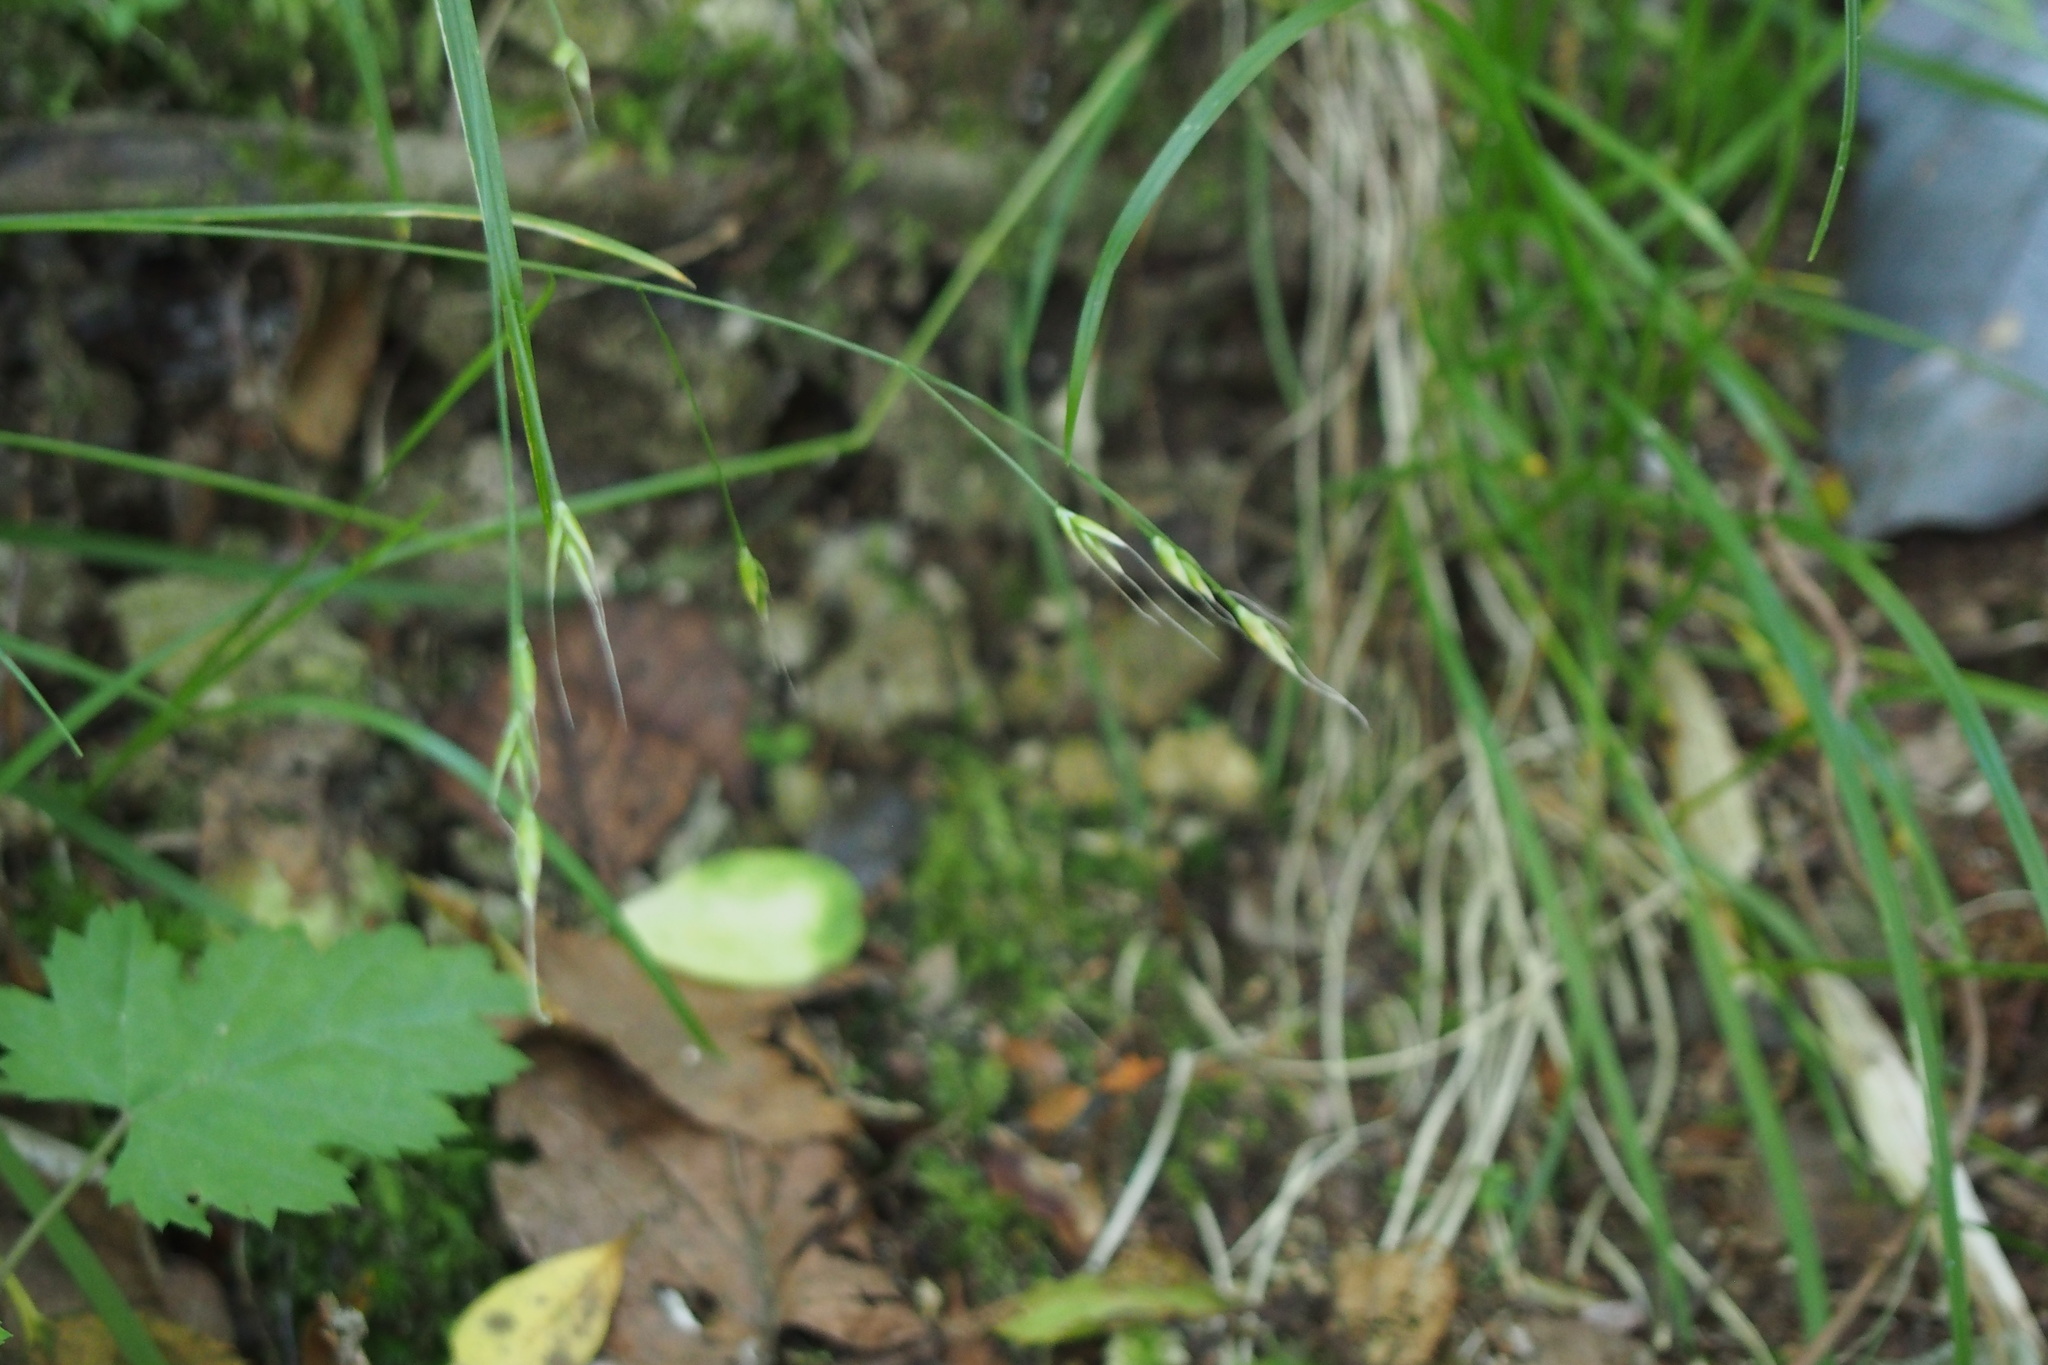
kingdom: Plantae
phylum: Tracheophyta
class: Liliopsida
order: Poales
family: Poaceae
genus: Festuca
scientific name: Festuca parvigluma
